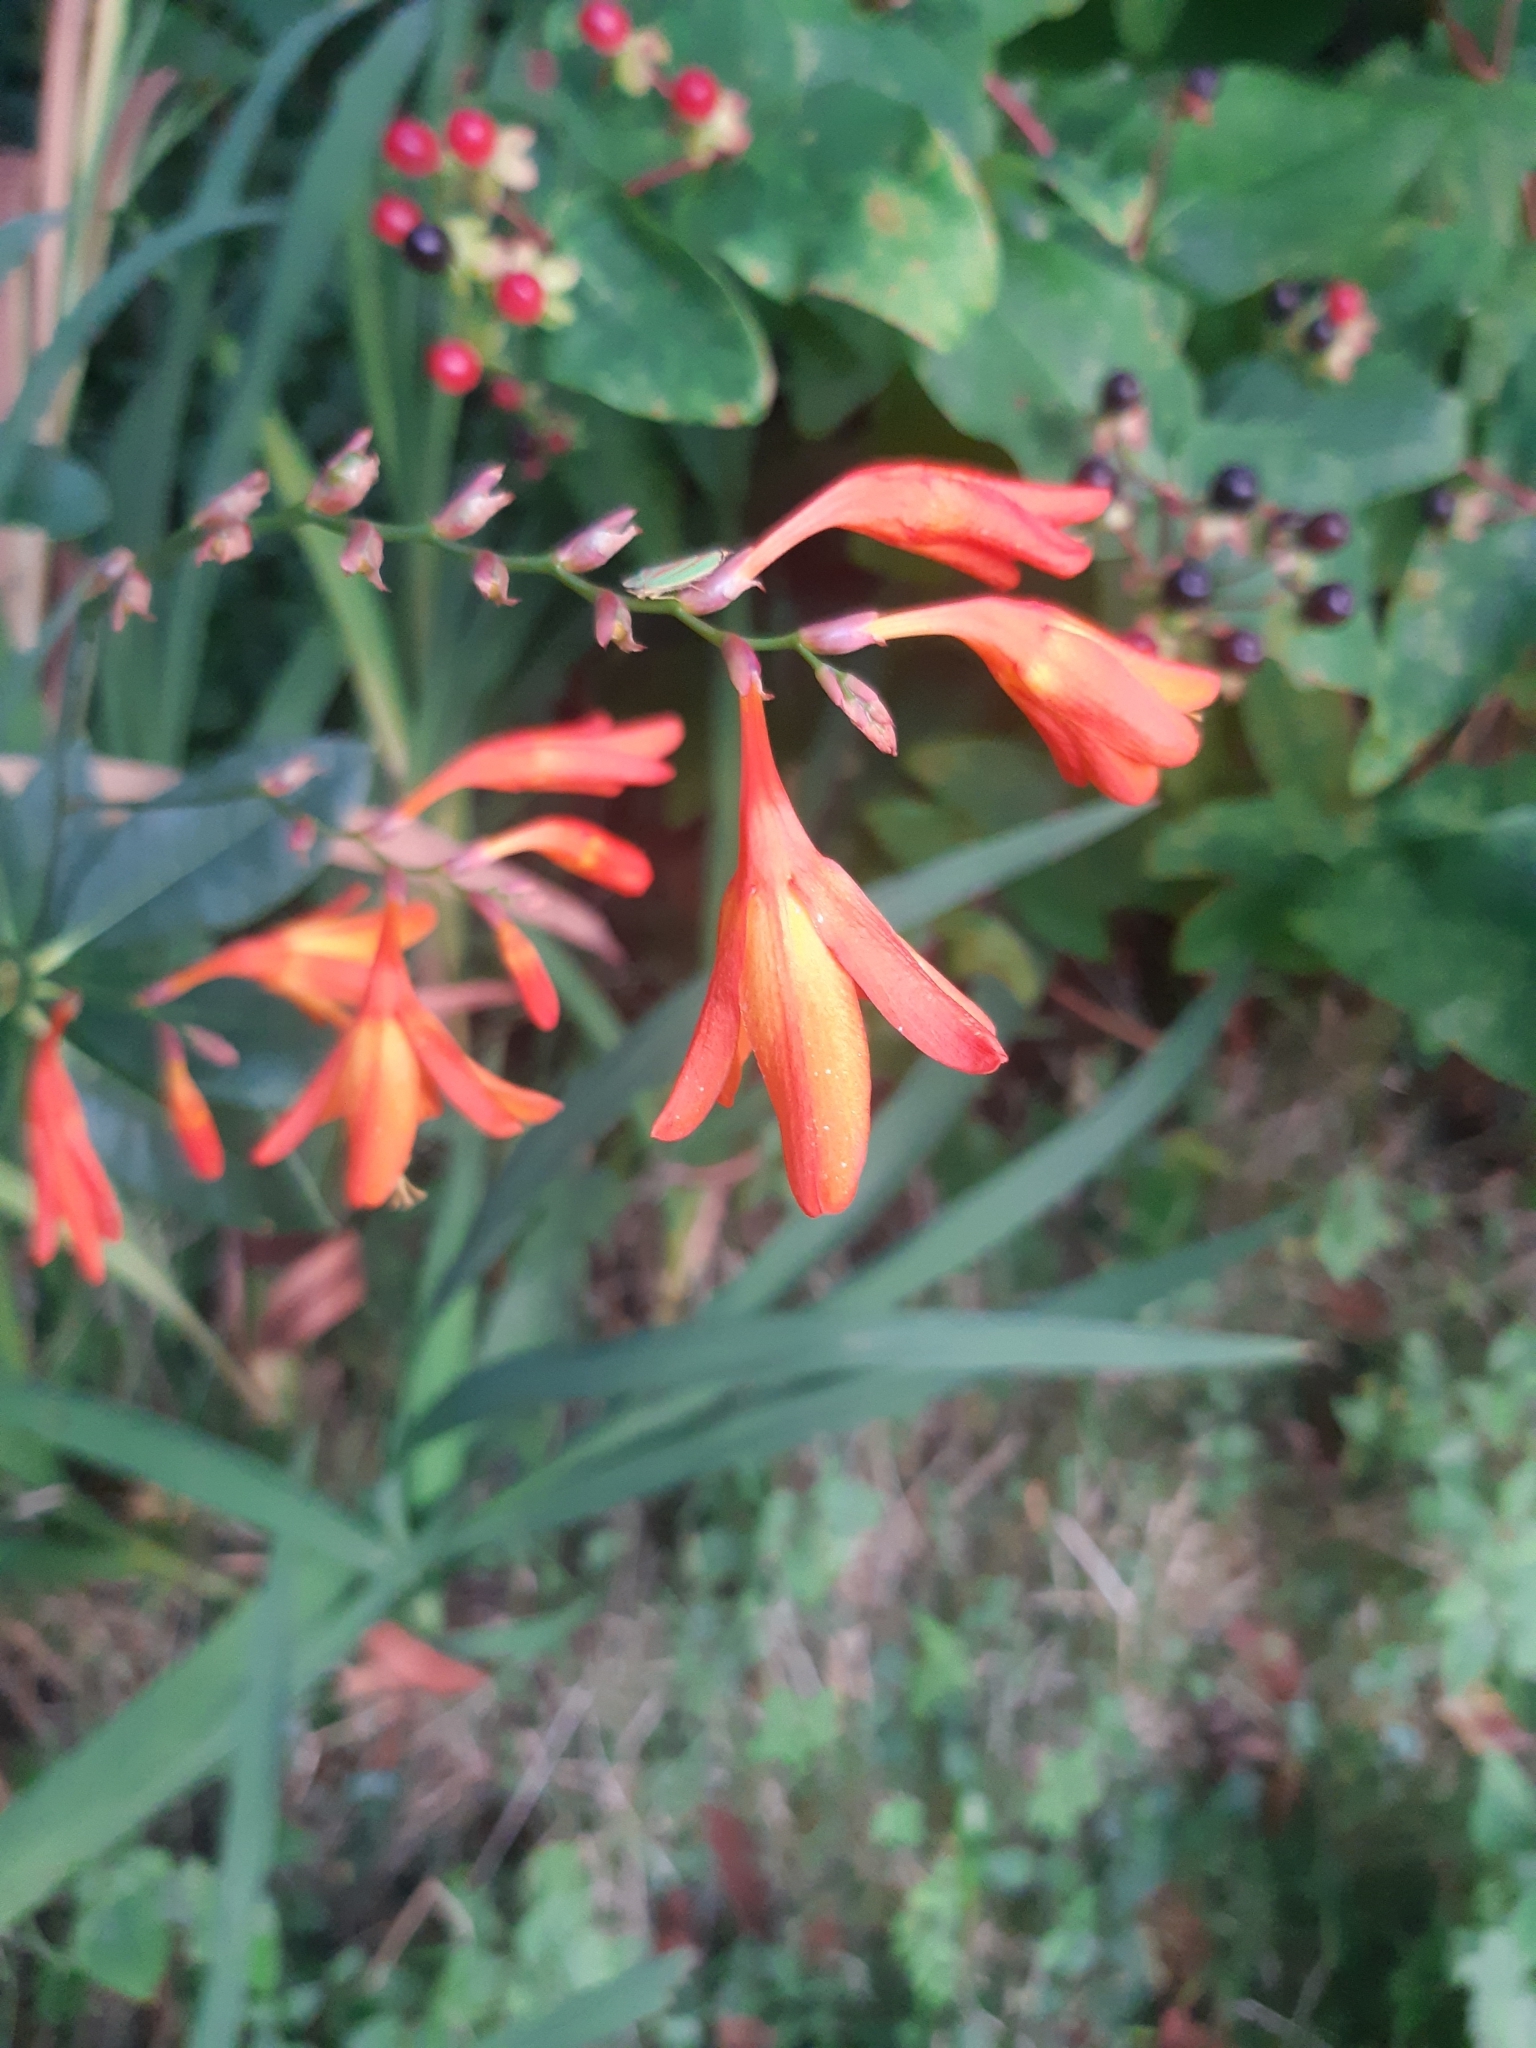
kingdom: Plantae
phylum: Tracheophyta
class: Liliopsida
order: Asparagales
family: Iridaceae
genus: Crocosmia
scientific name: Crocosmia crocosmiiflora
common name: Montbretia
